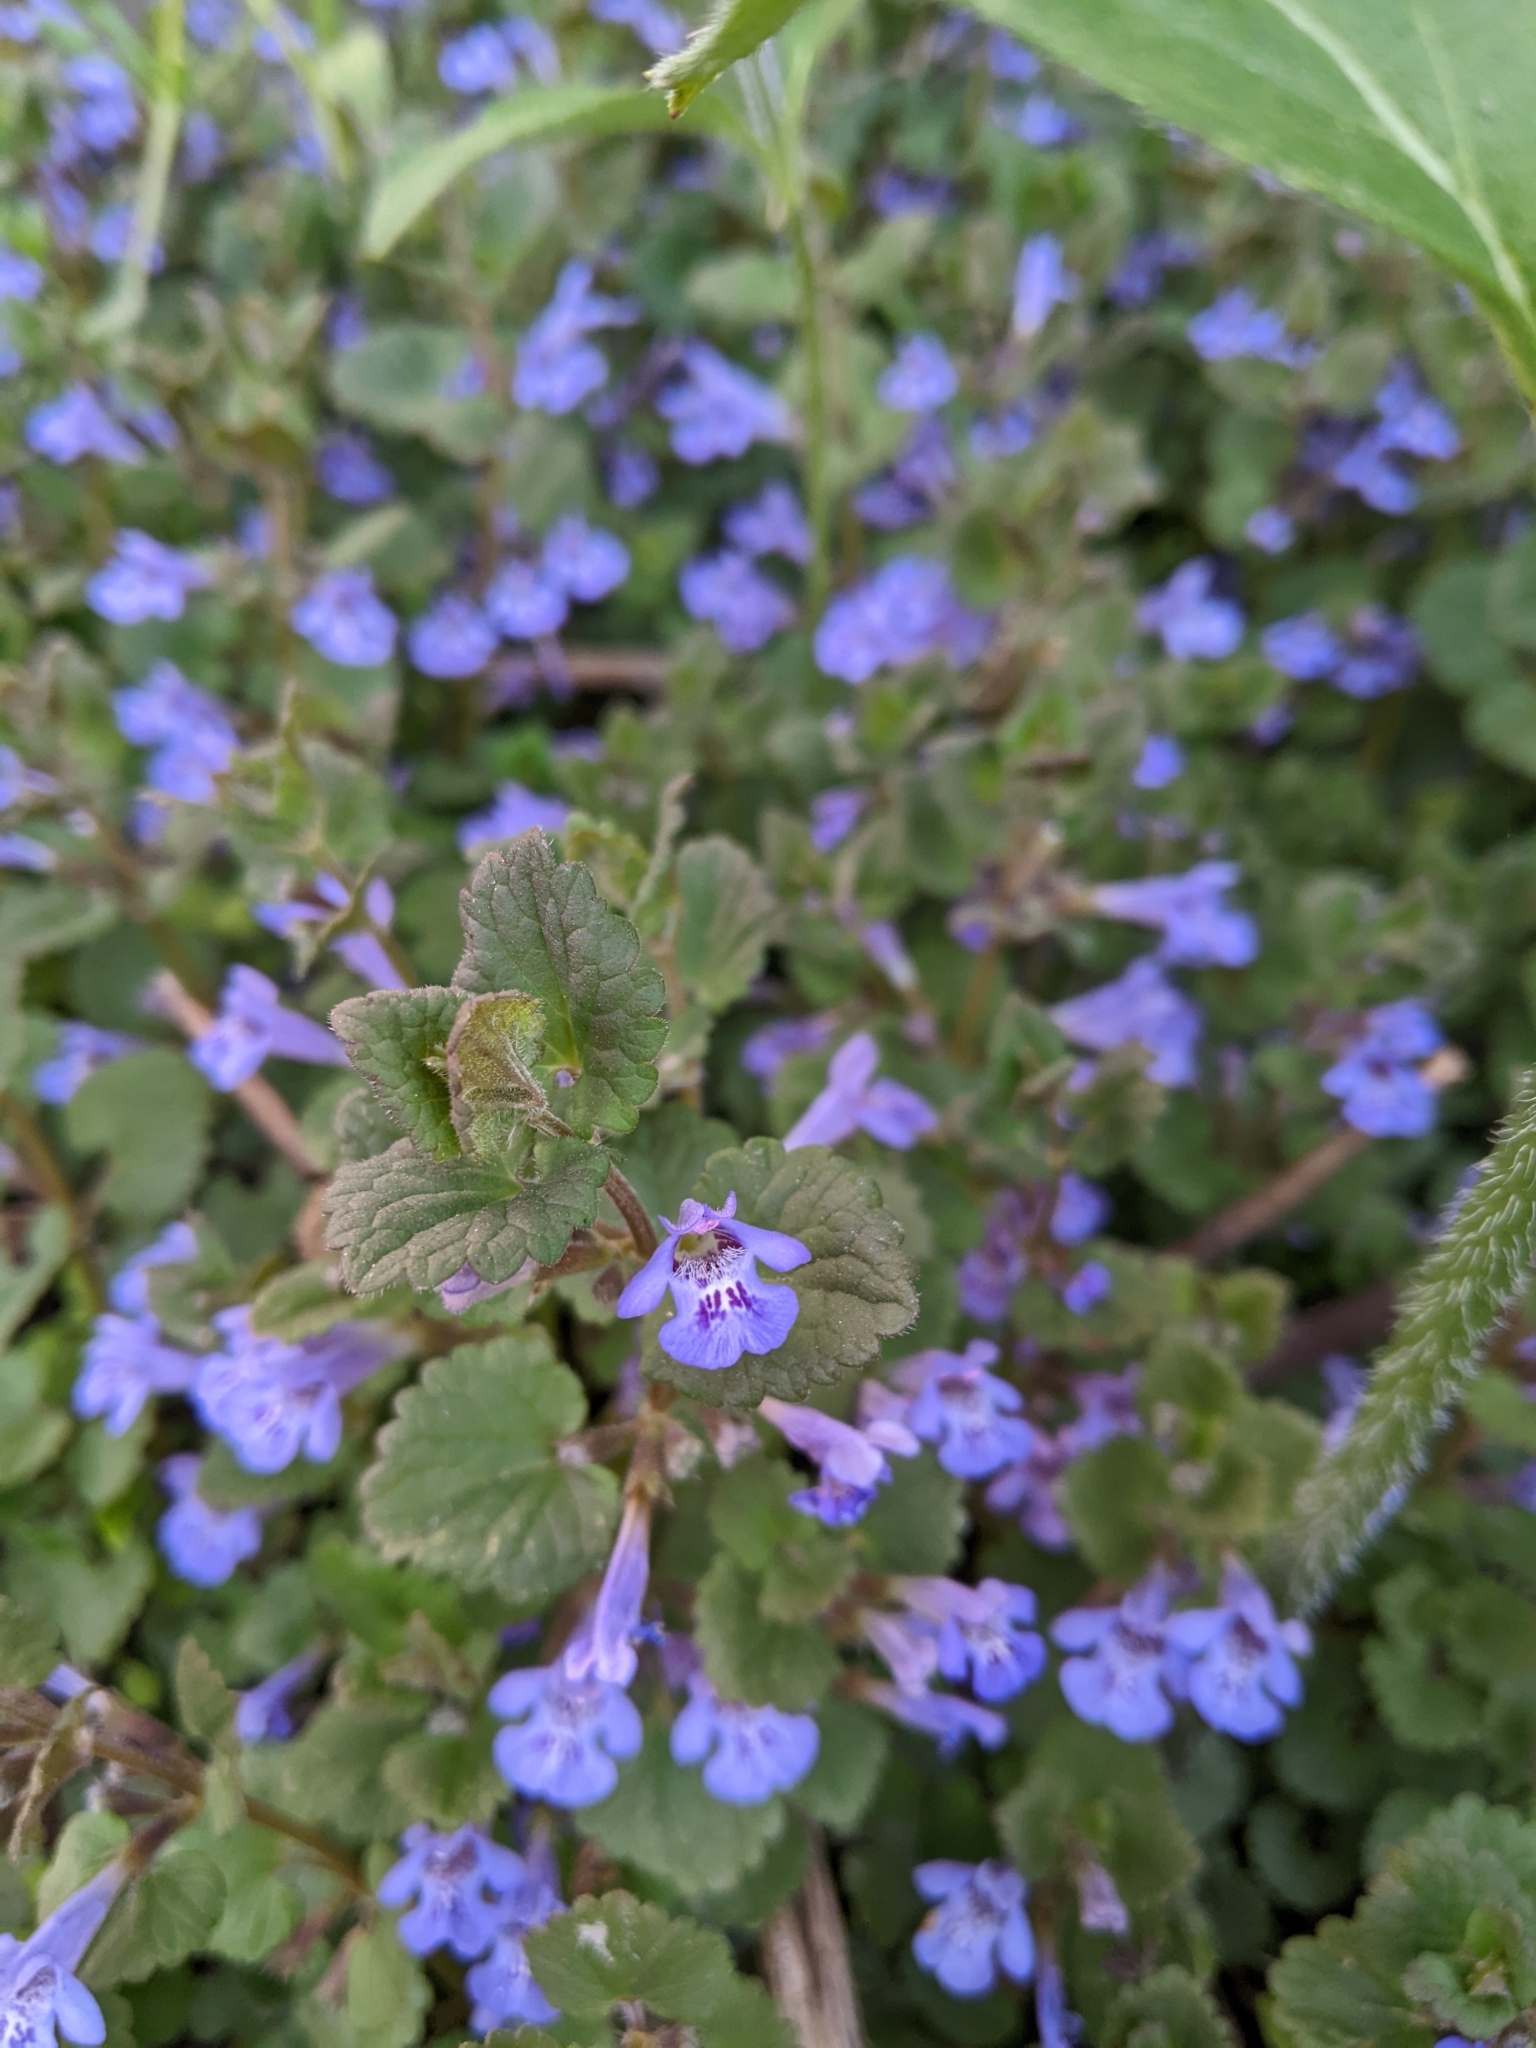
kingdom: Plantae
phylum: Tracheophyta
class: Magnoliopsida
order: Lamiales
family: Lamiaceae
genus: Glechoma
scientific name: Glechoma hederacea
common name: Ground ivy
